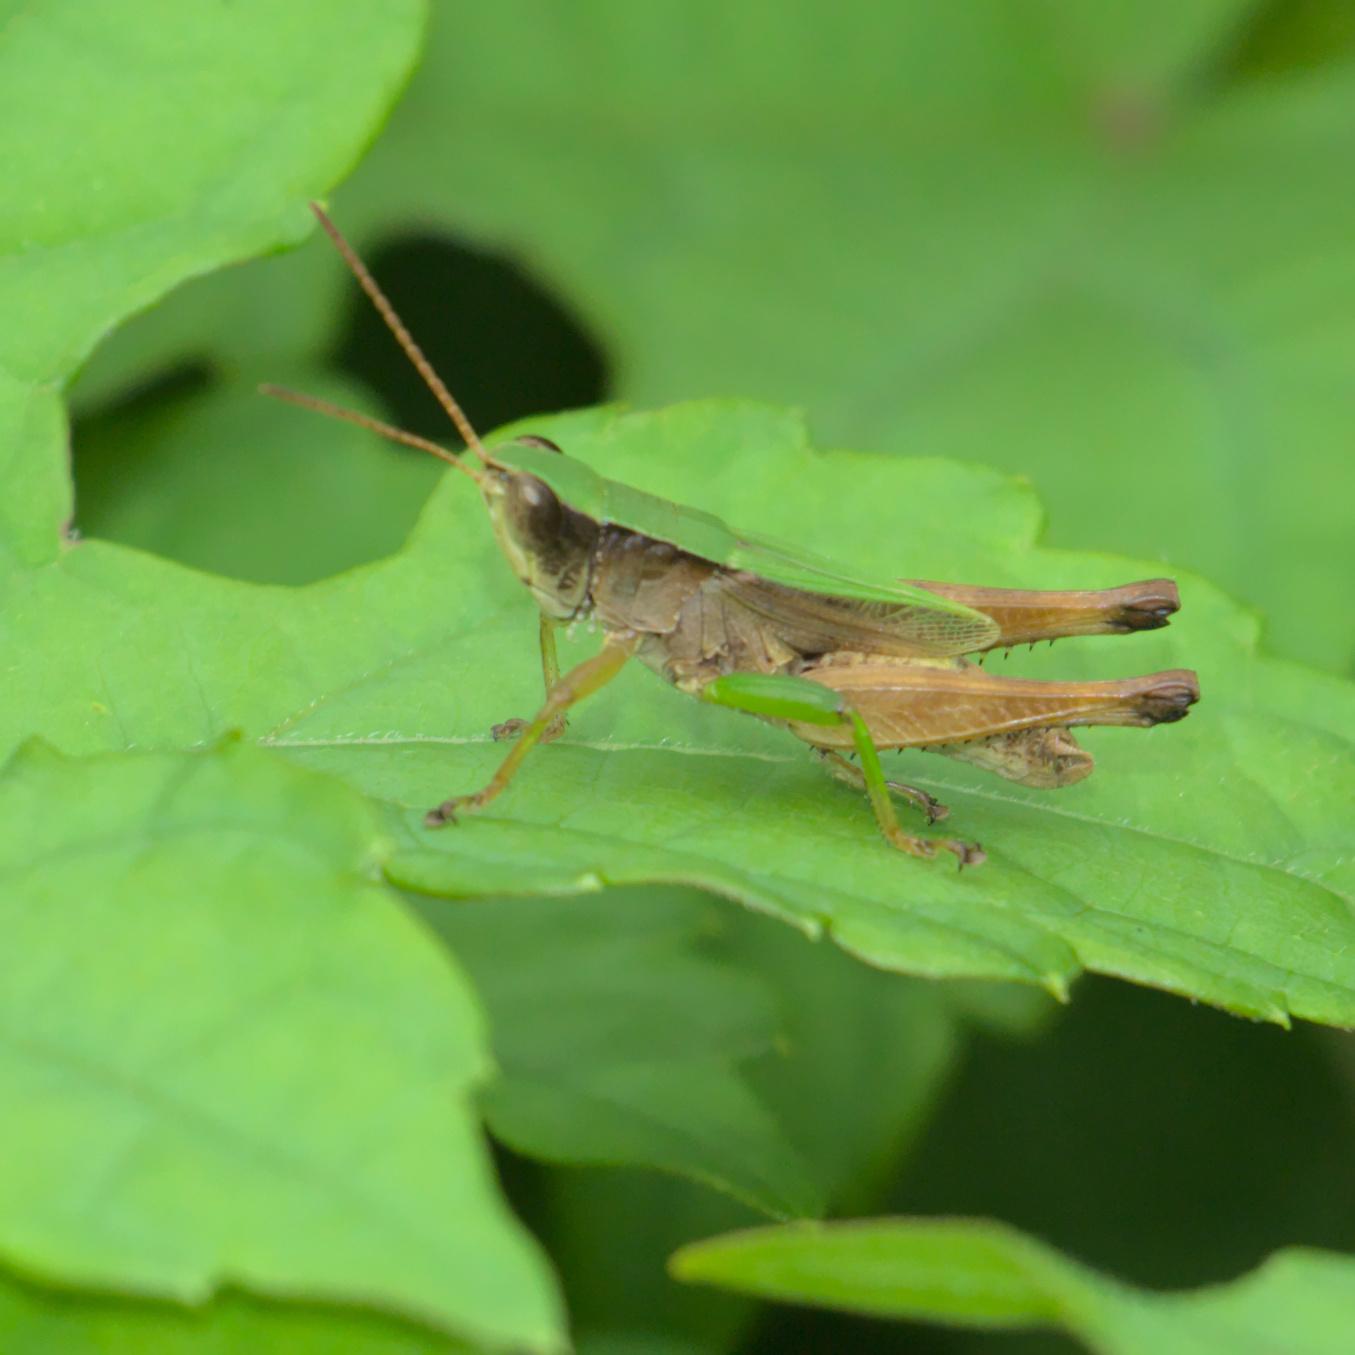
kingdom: Animalia
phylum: Arthropoda
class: Insecta
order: Orthoptera
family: Acrididae
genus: Dichromorpha
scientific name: Dichromorpha viridis
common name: Short-winged green grasshopper
